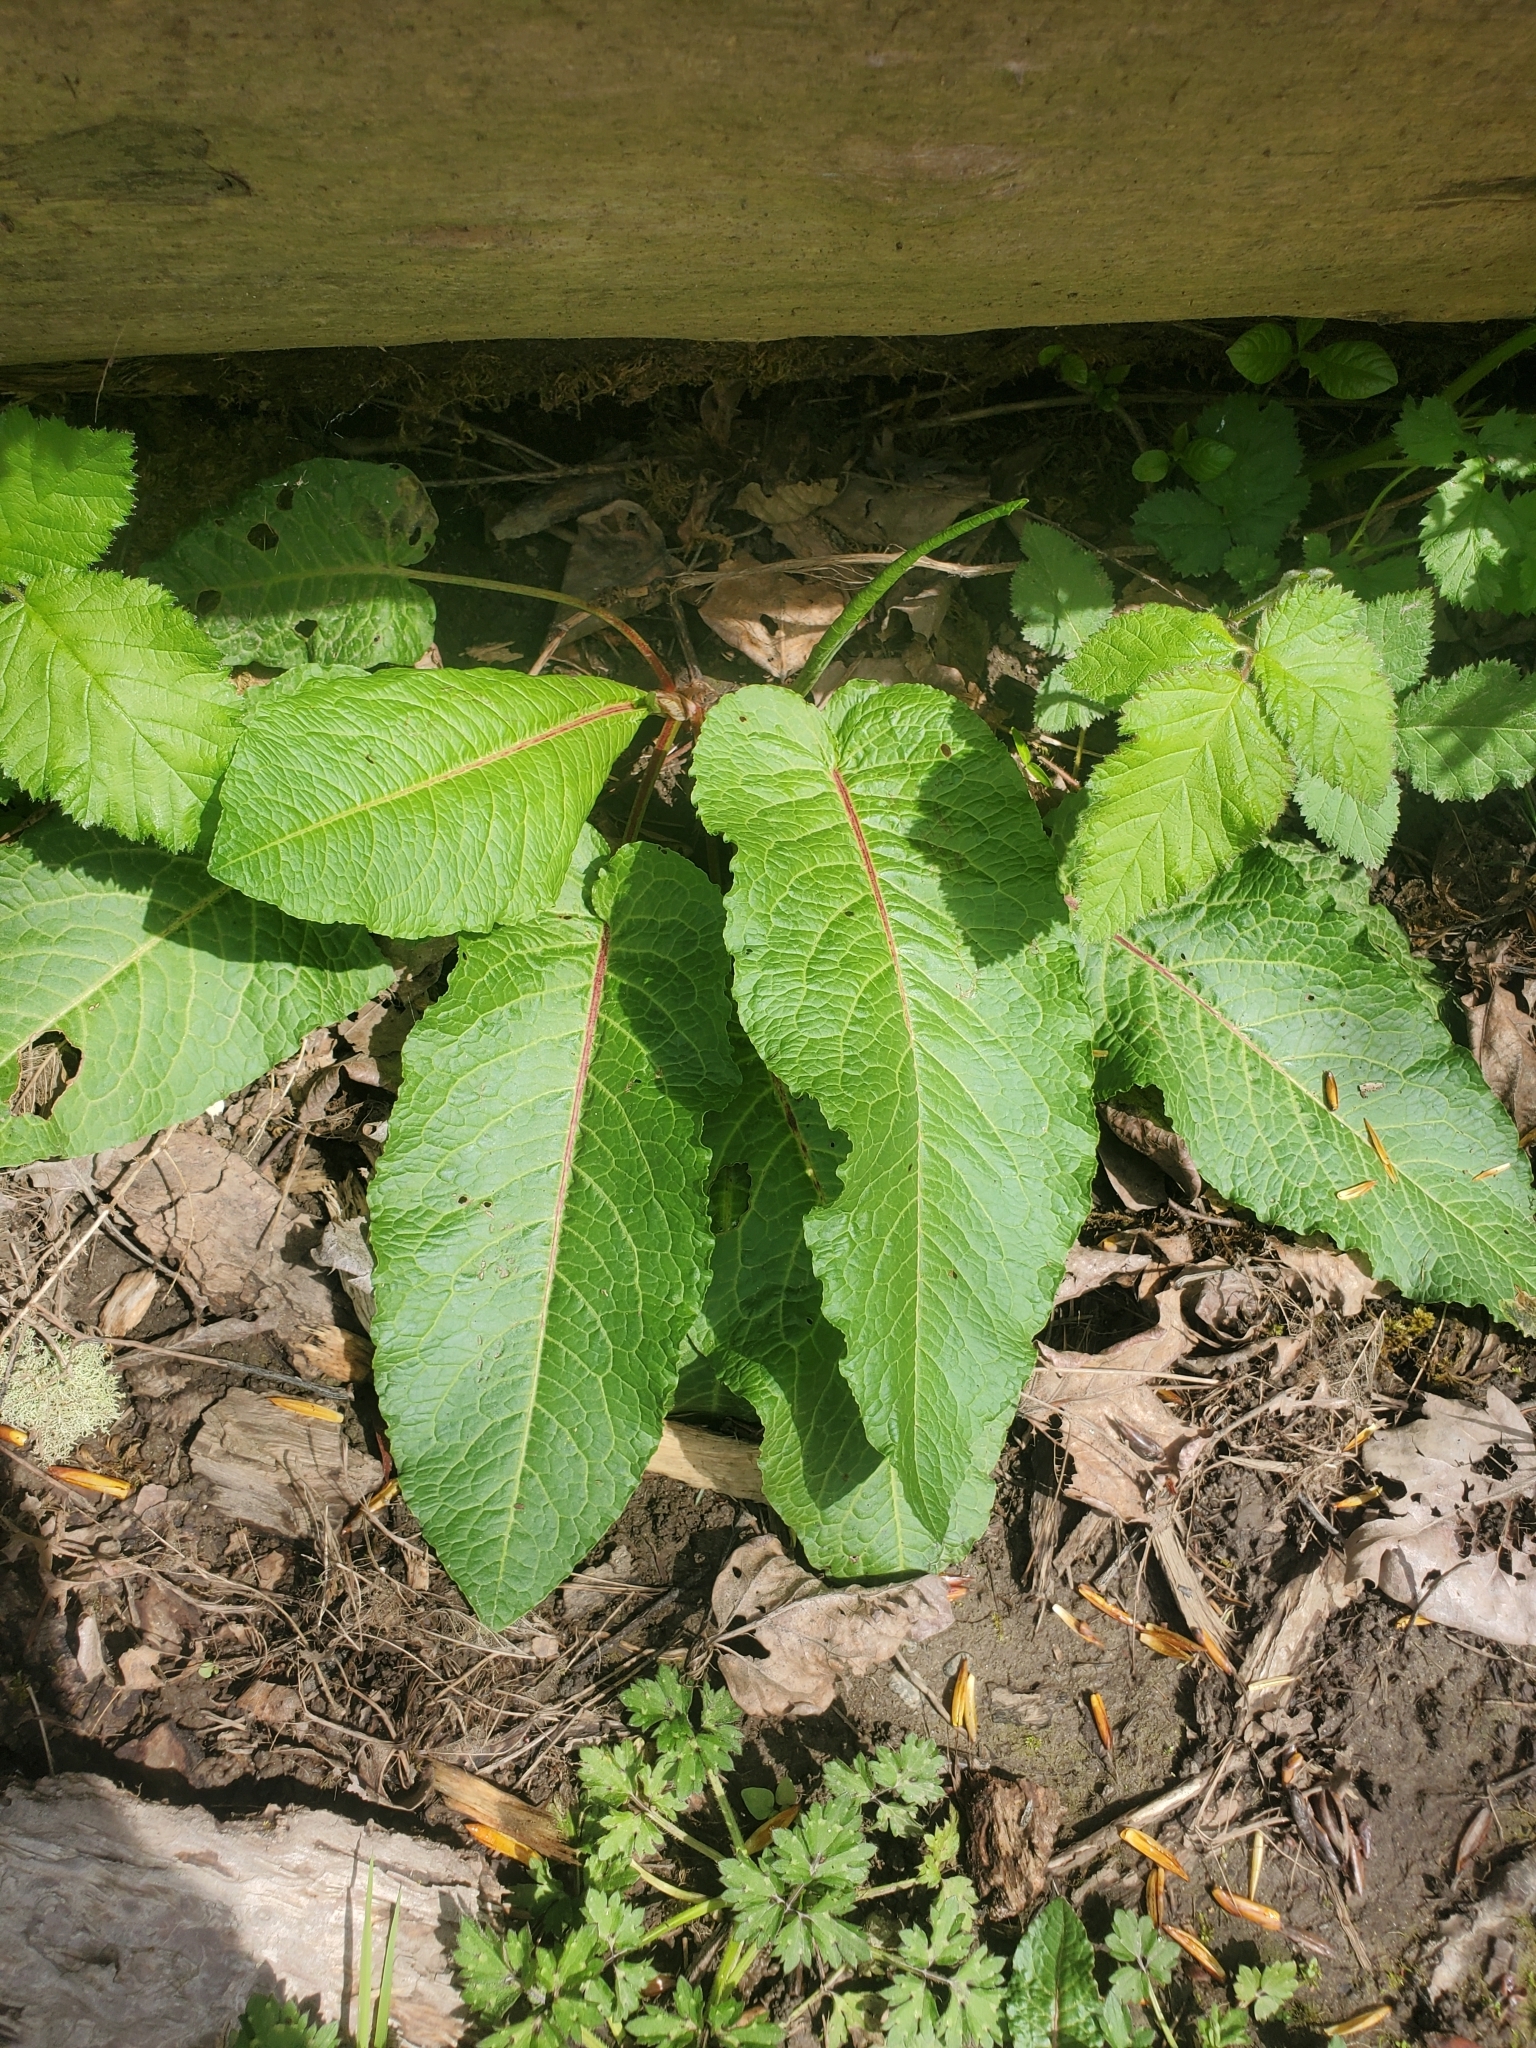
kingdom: Plantae
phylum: Tracheophyta
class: Magnoliopsida
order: Caryophyllales
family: Polygonaceae
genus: Rumex
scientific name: Rumex obtusifolius
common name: Bitter dock
